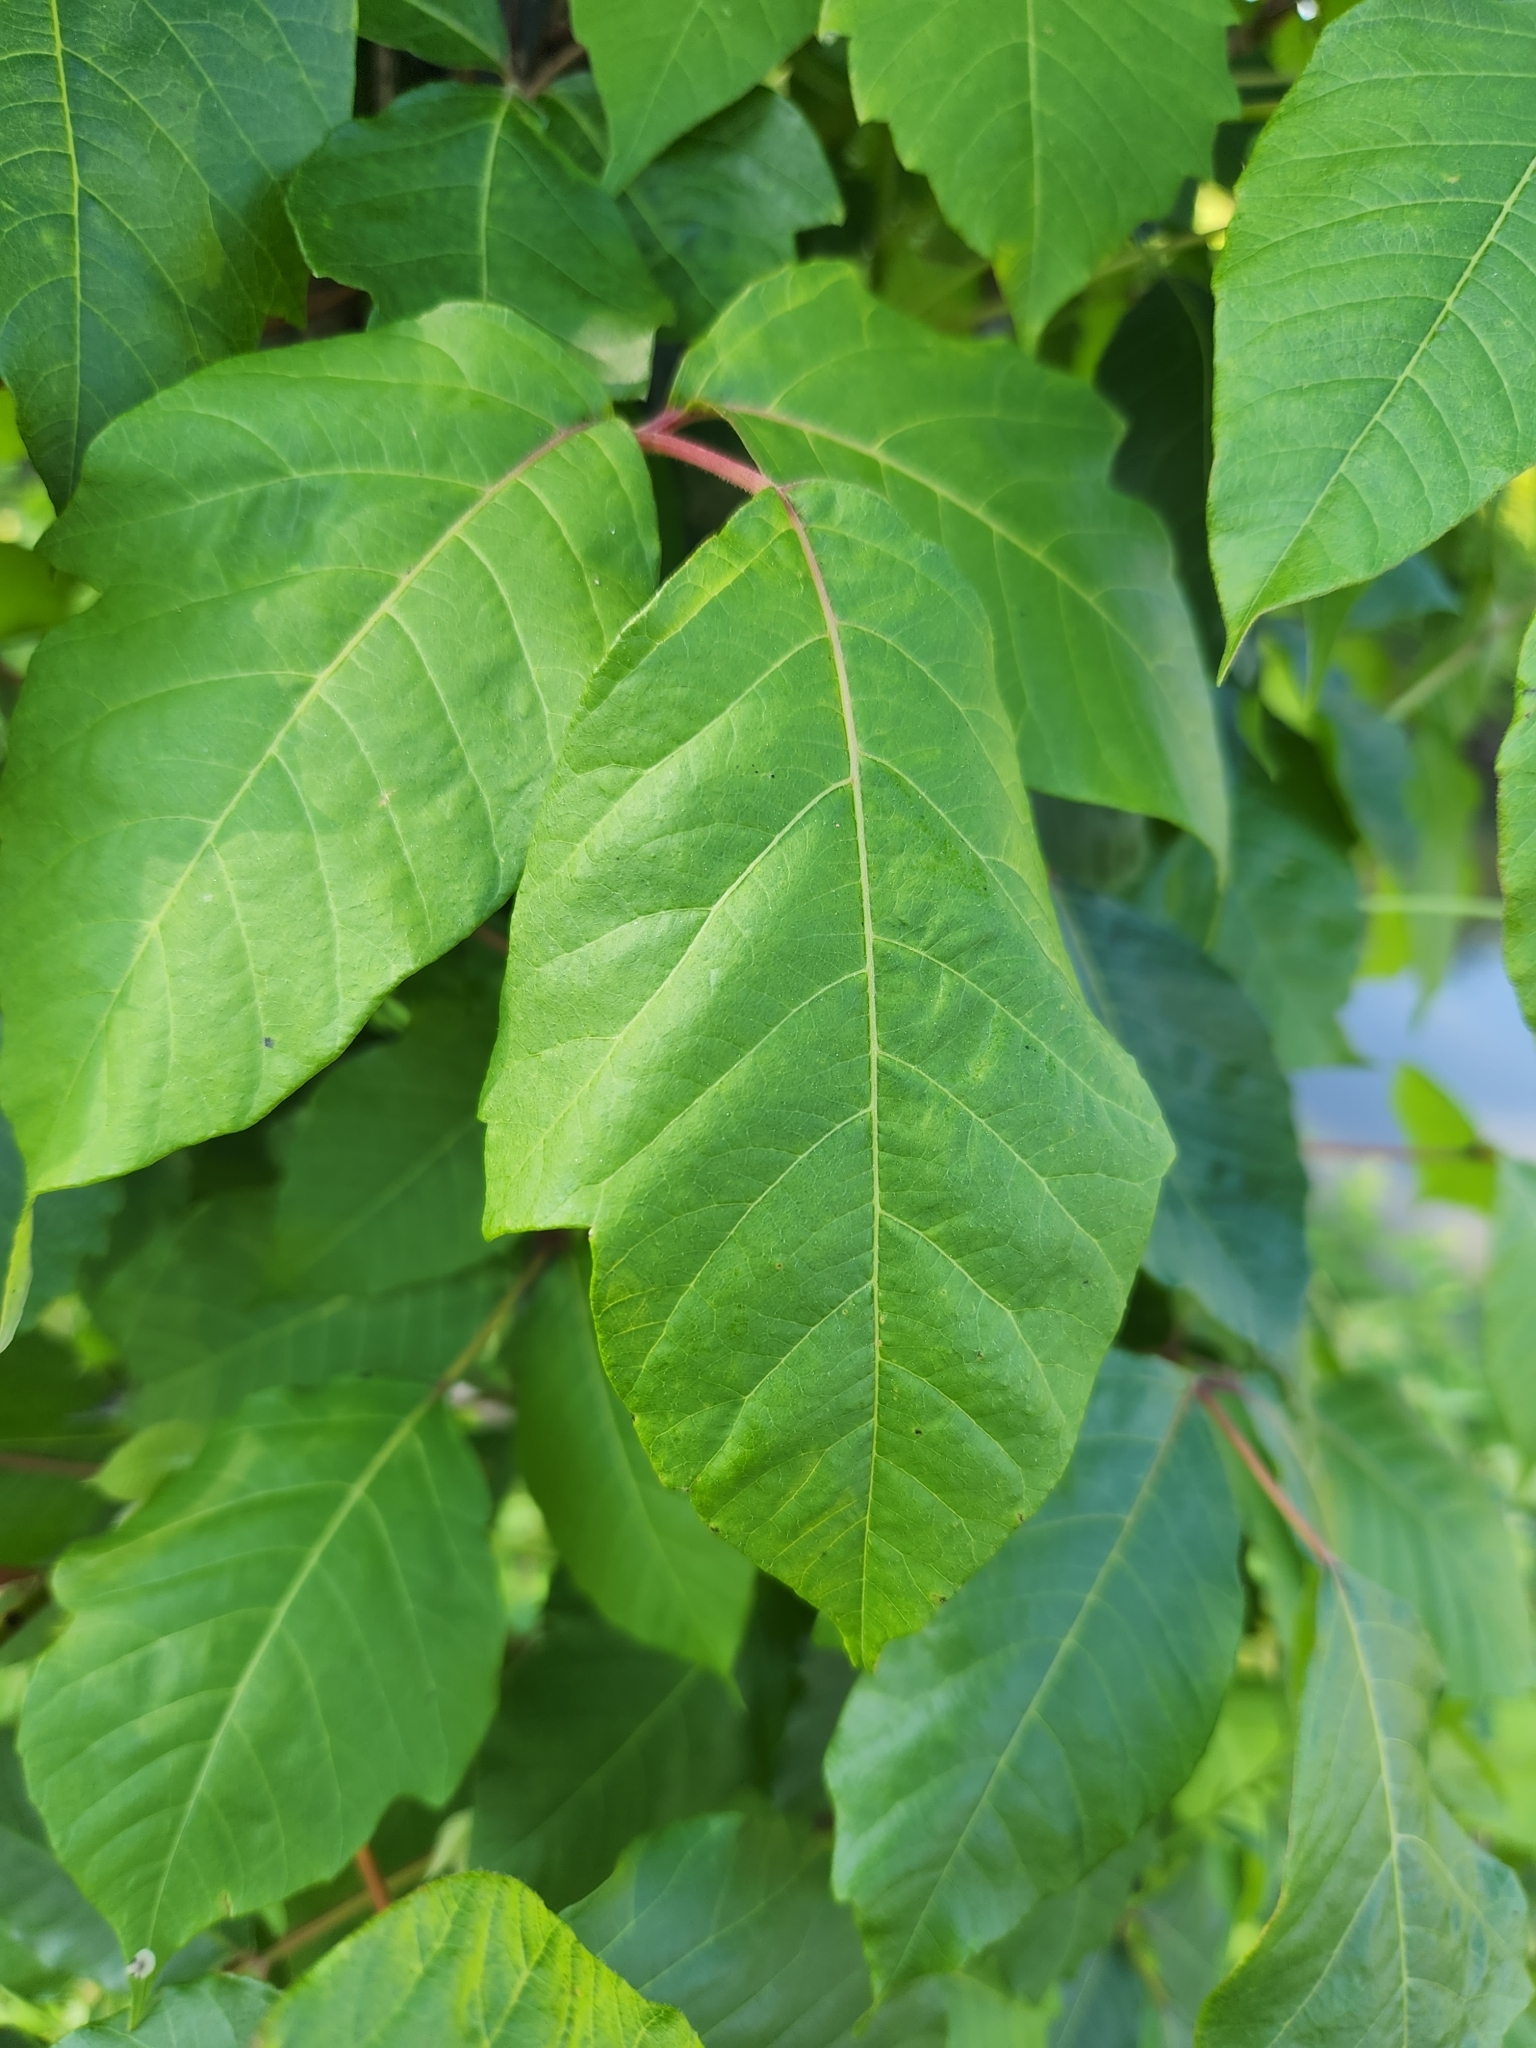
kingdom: Plantae
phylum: Tracheophyta
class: Magnoliopsida
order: Sapindales
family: Anacardiaceae
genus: Toxicodendron
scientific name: Toxicodendron radicans
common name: Poison ivy
